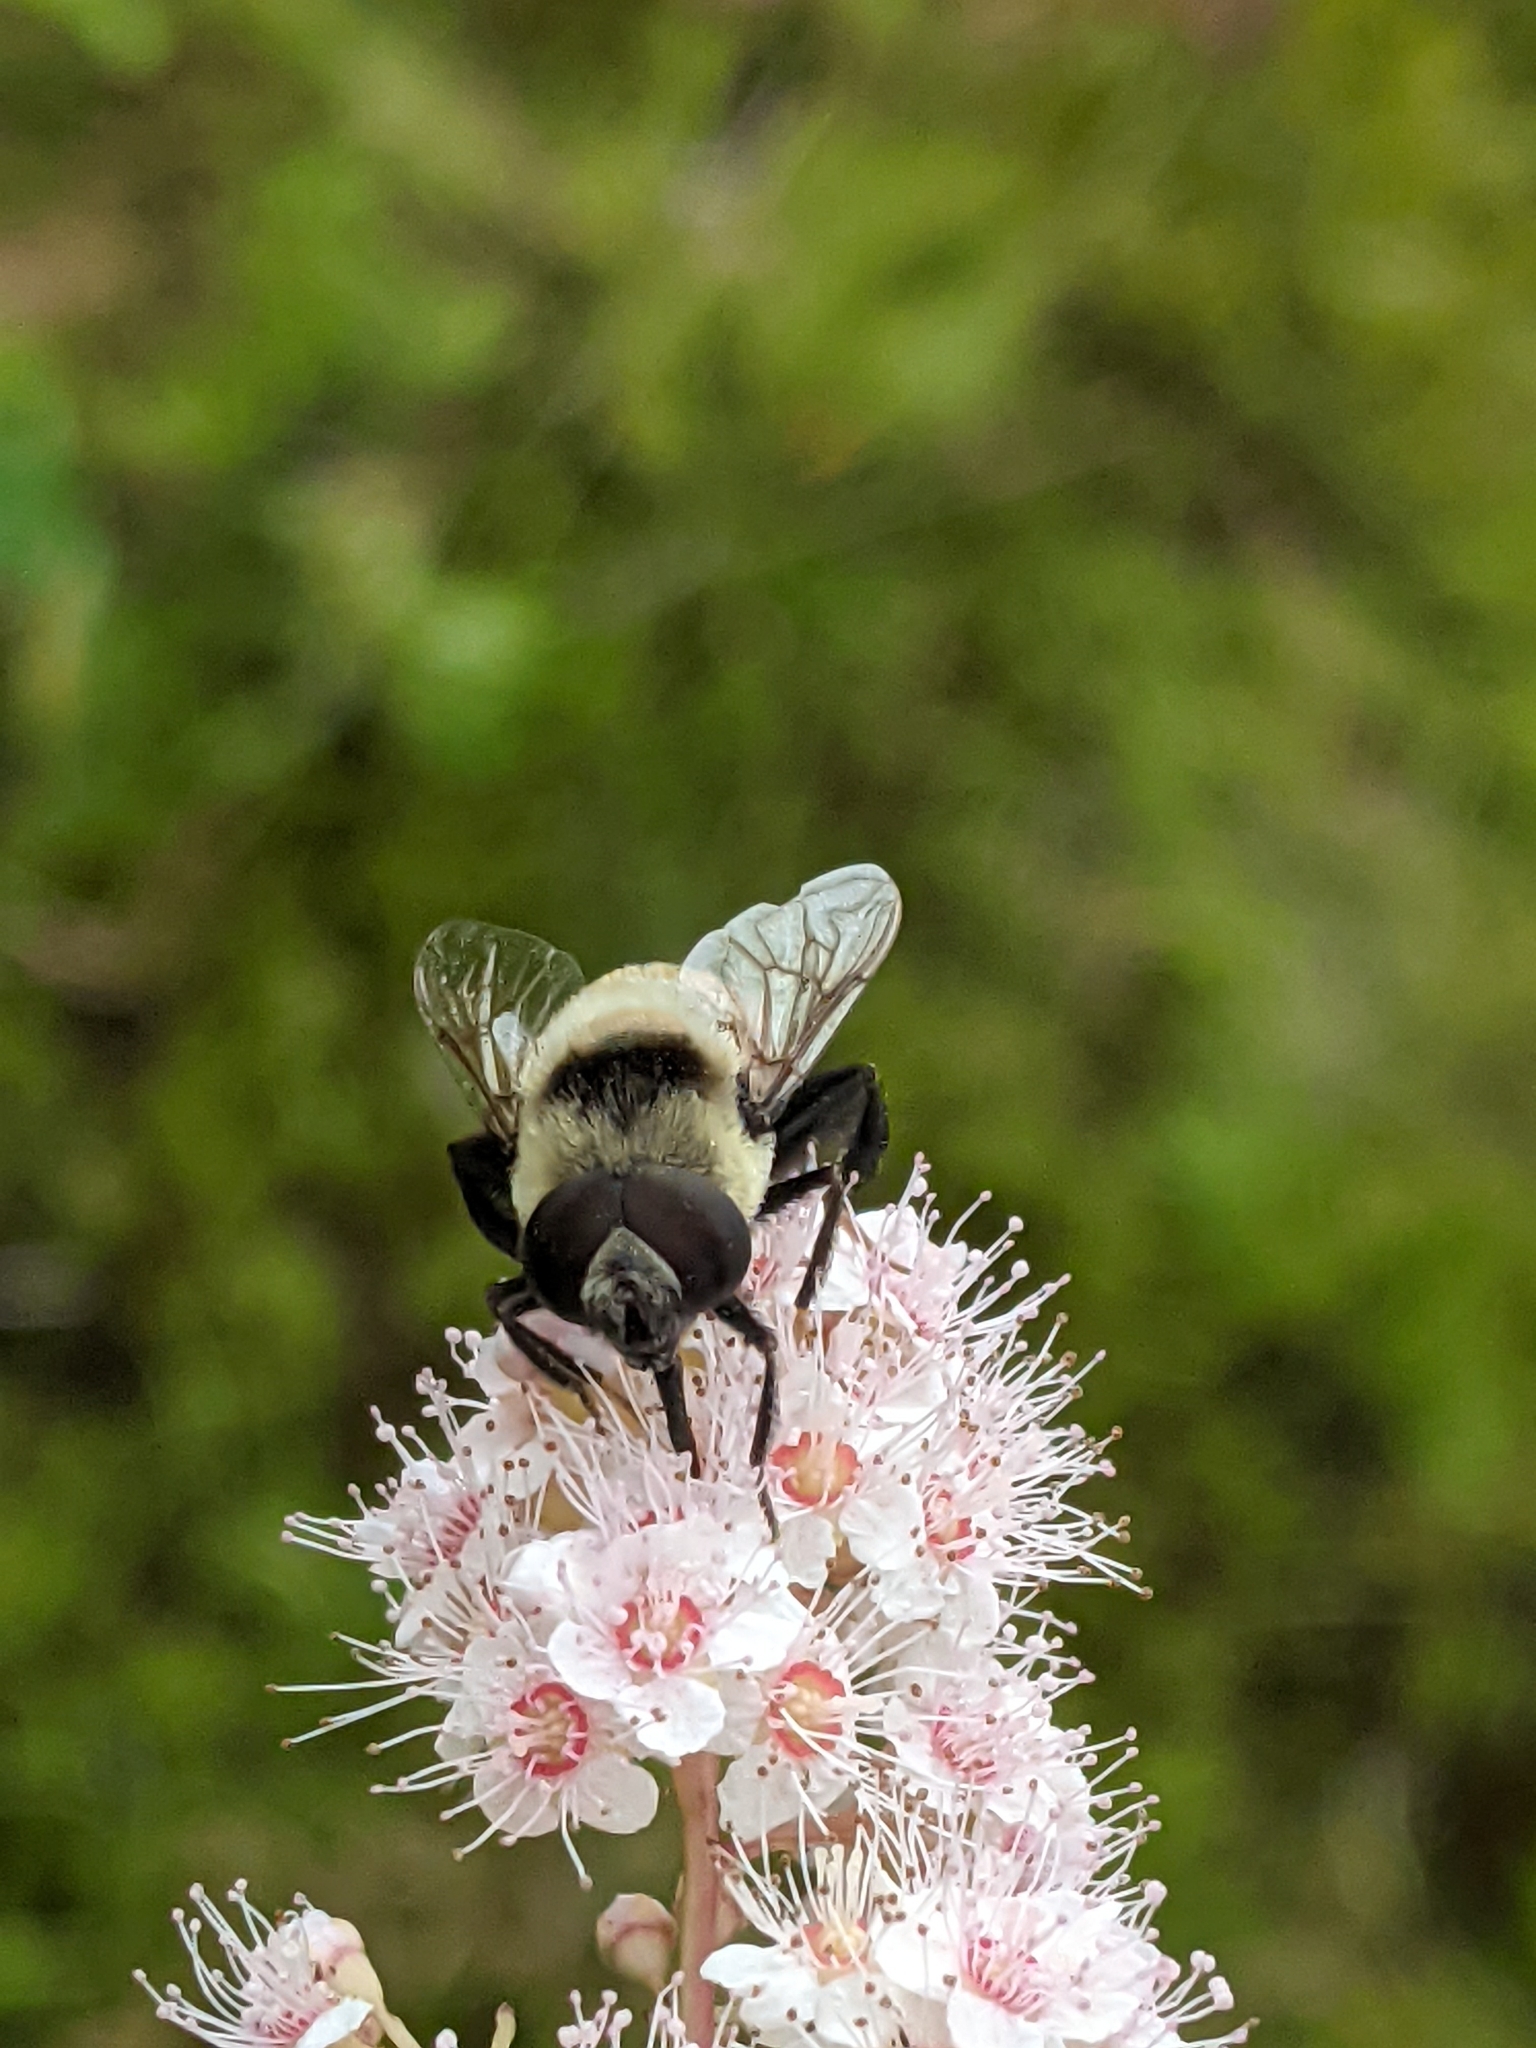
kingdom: Animalia
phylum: Arthropoda
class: Insecta
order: Diptera
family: Syrphidae
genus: Eristalis
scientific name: Eristalis flavipes
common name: Orange-legged drone fly
